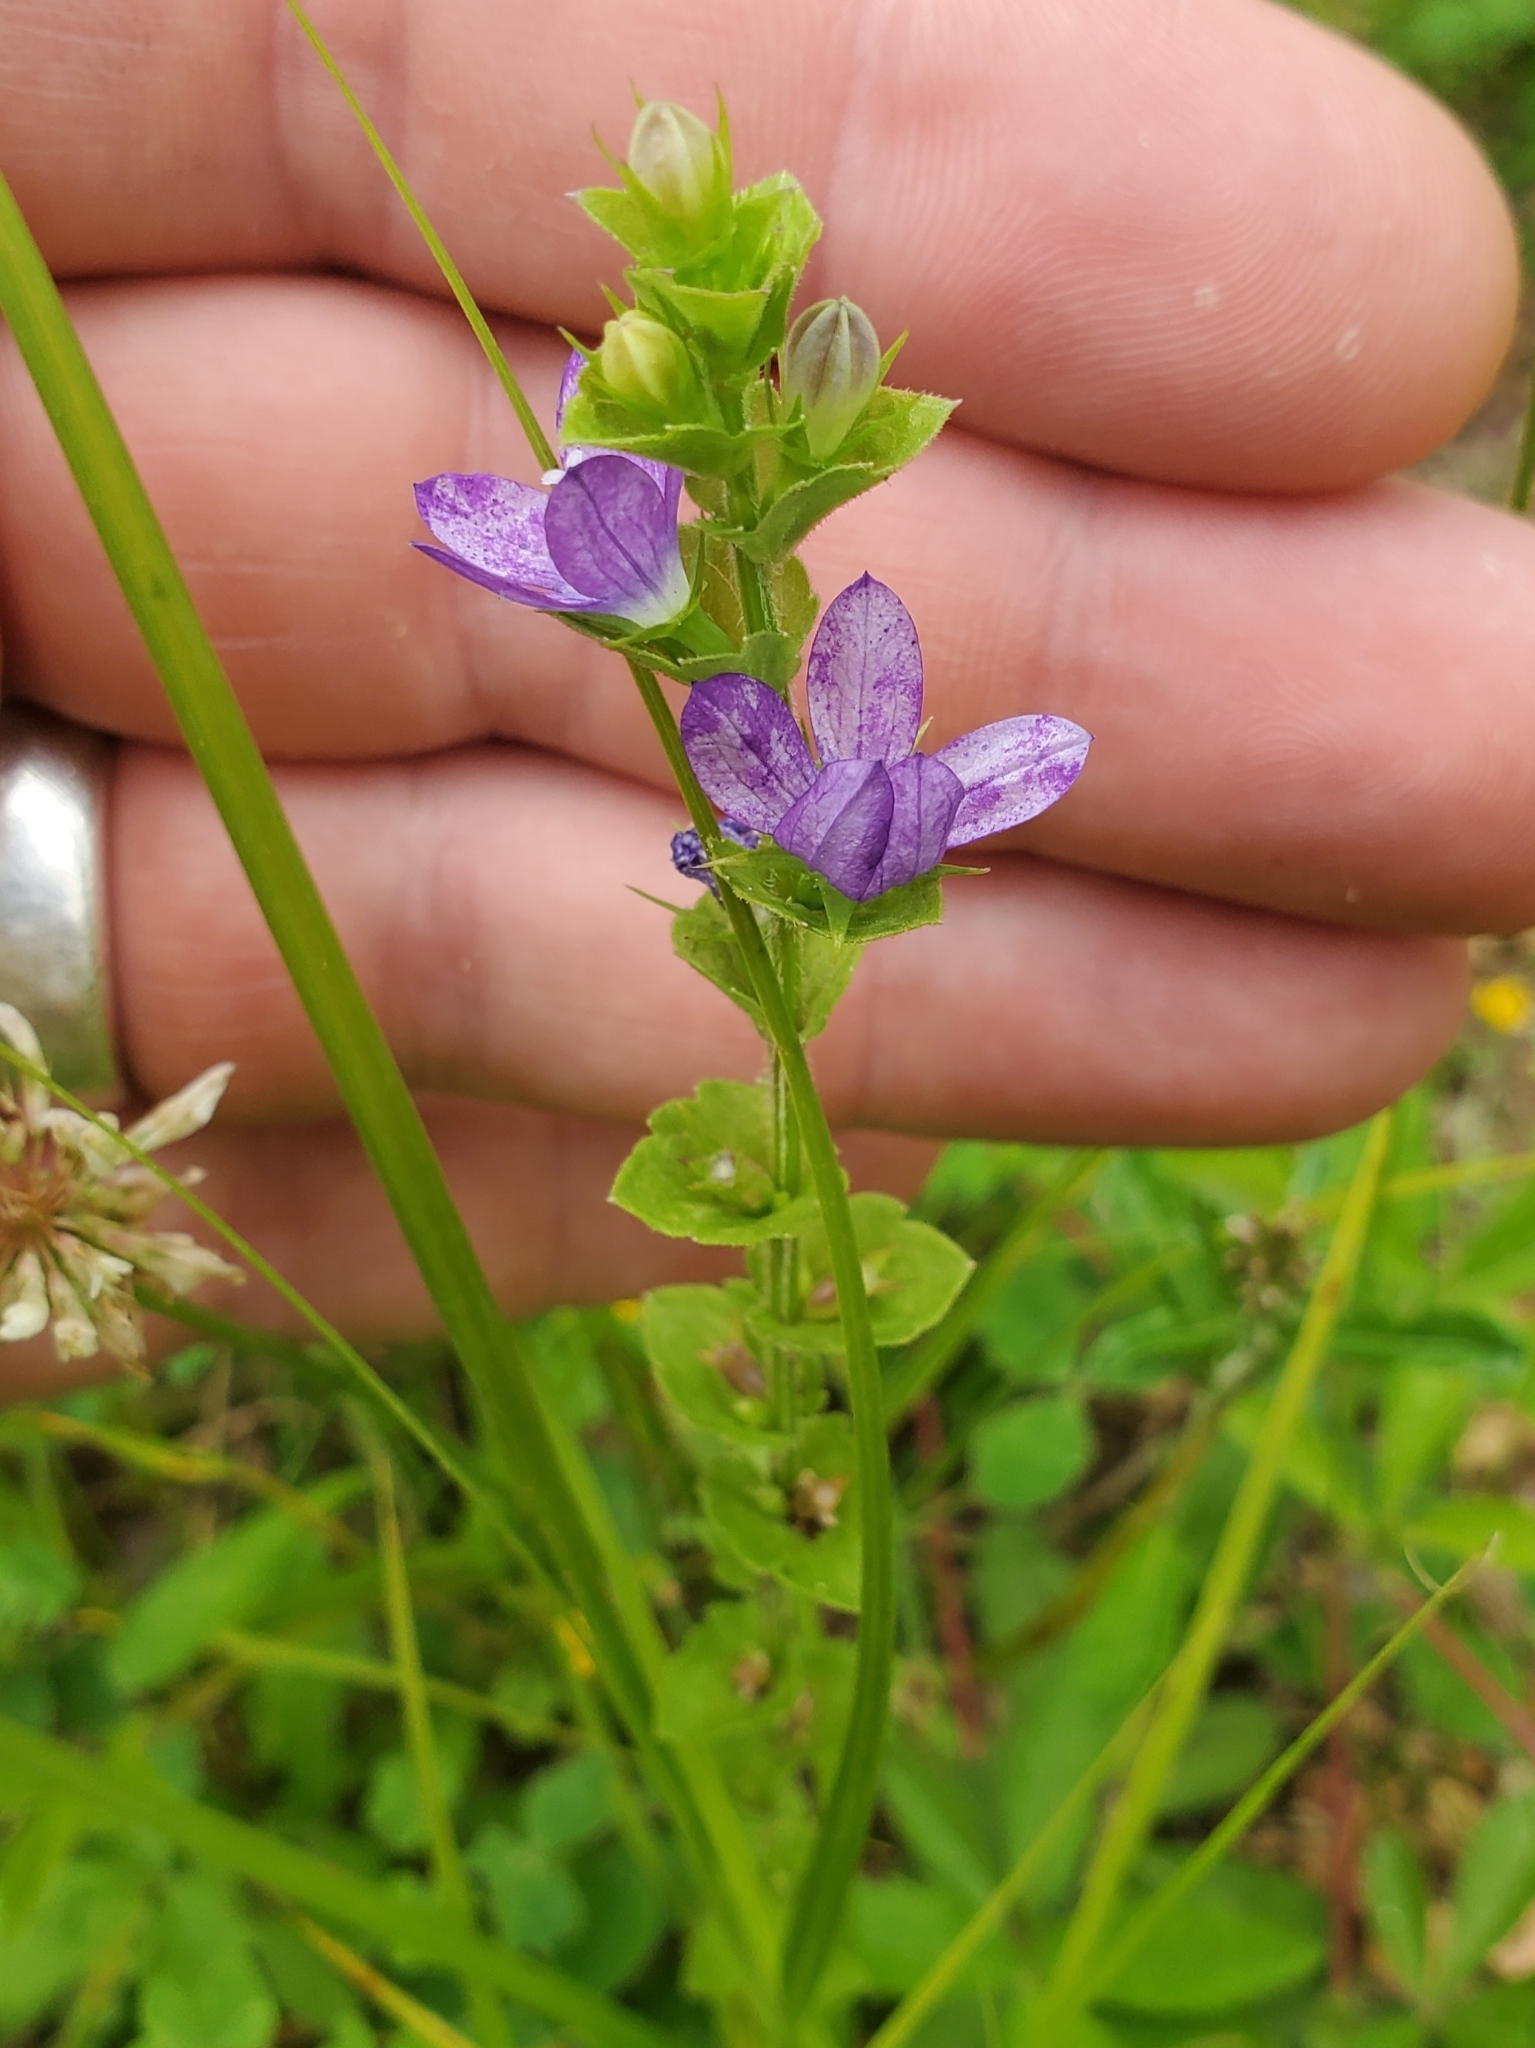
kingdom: Plantae
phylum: Tracheophyta
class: Magnoliopsida
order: Asterales
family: Campanulaceae
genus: Triodanis
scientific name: Triodanis perfoliata
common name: Clasping venus' looking-glass
